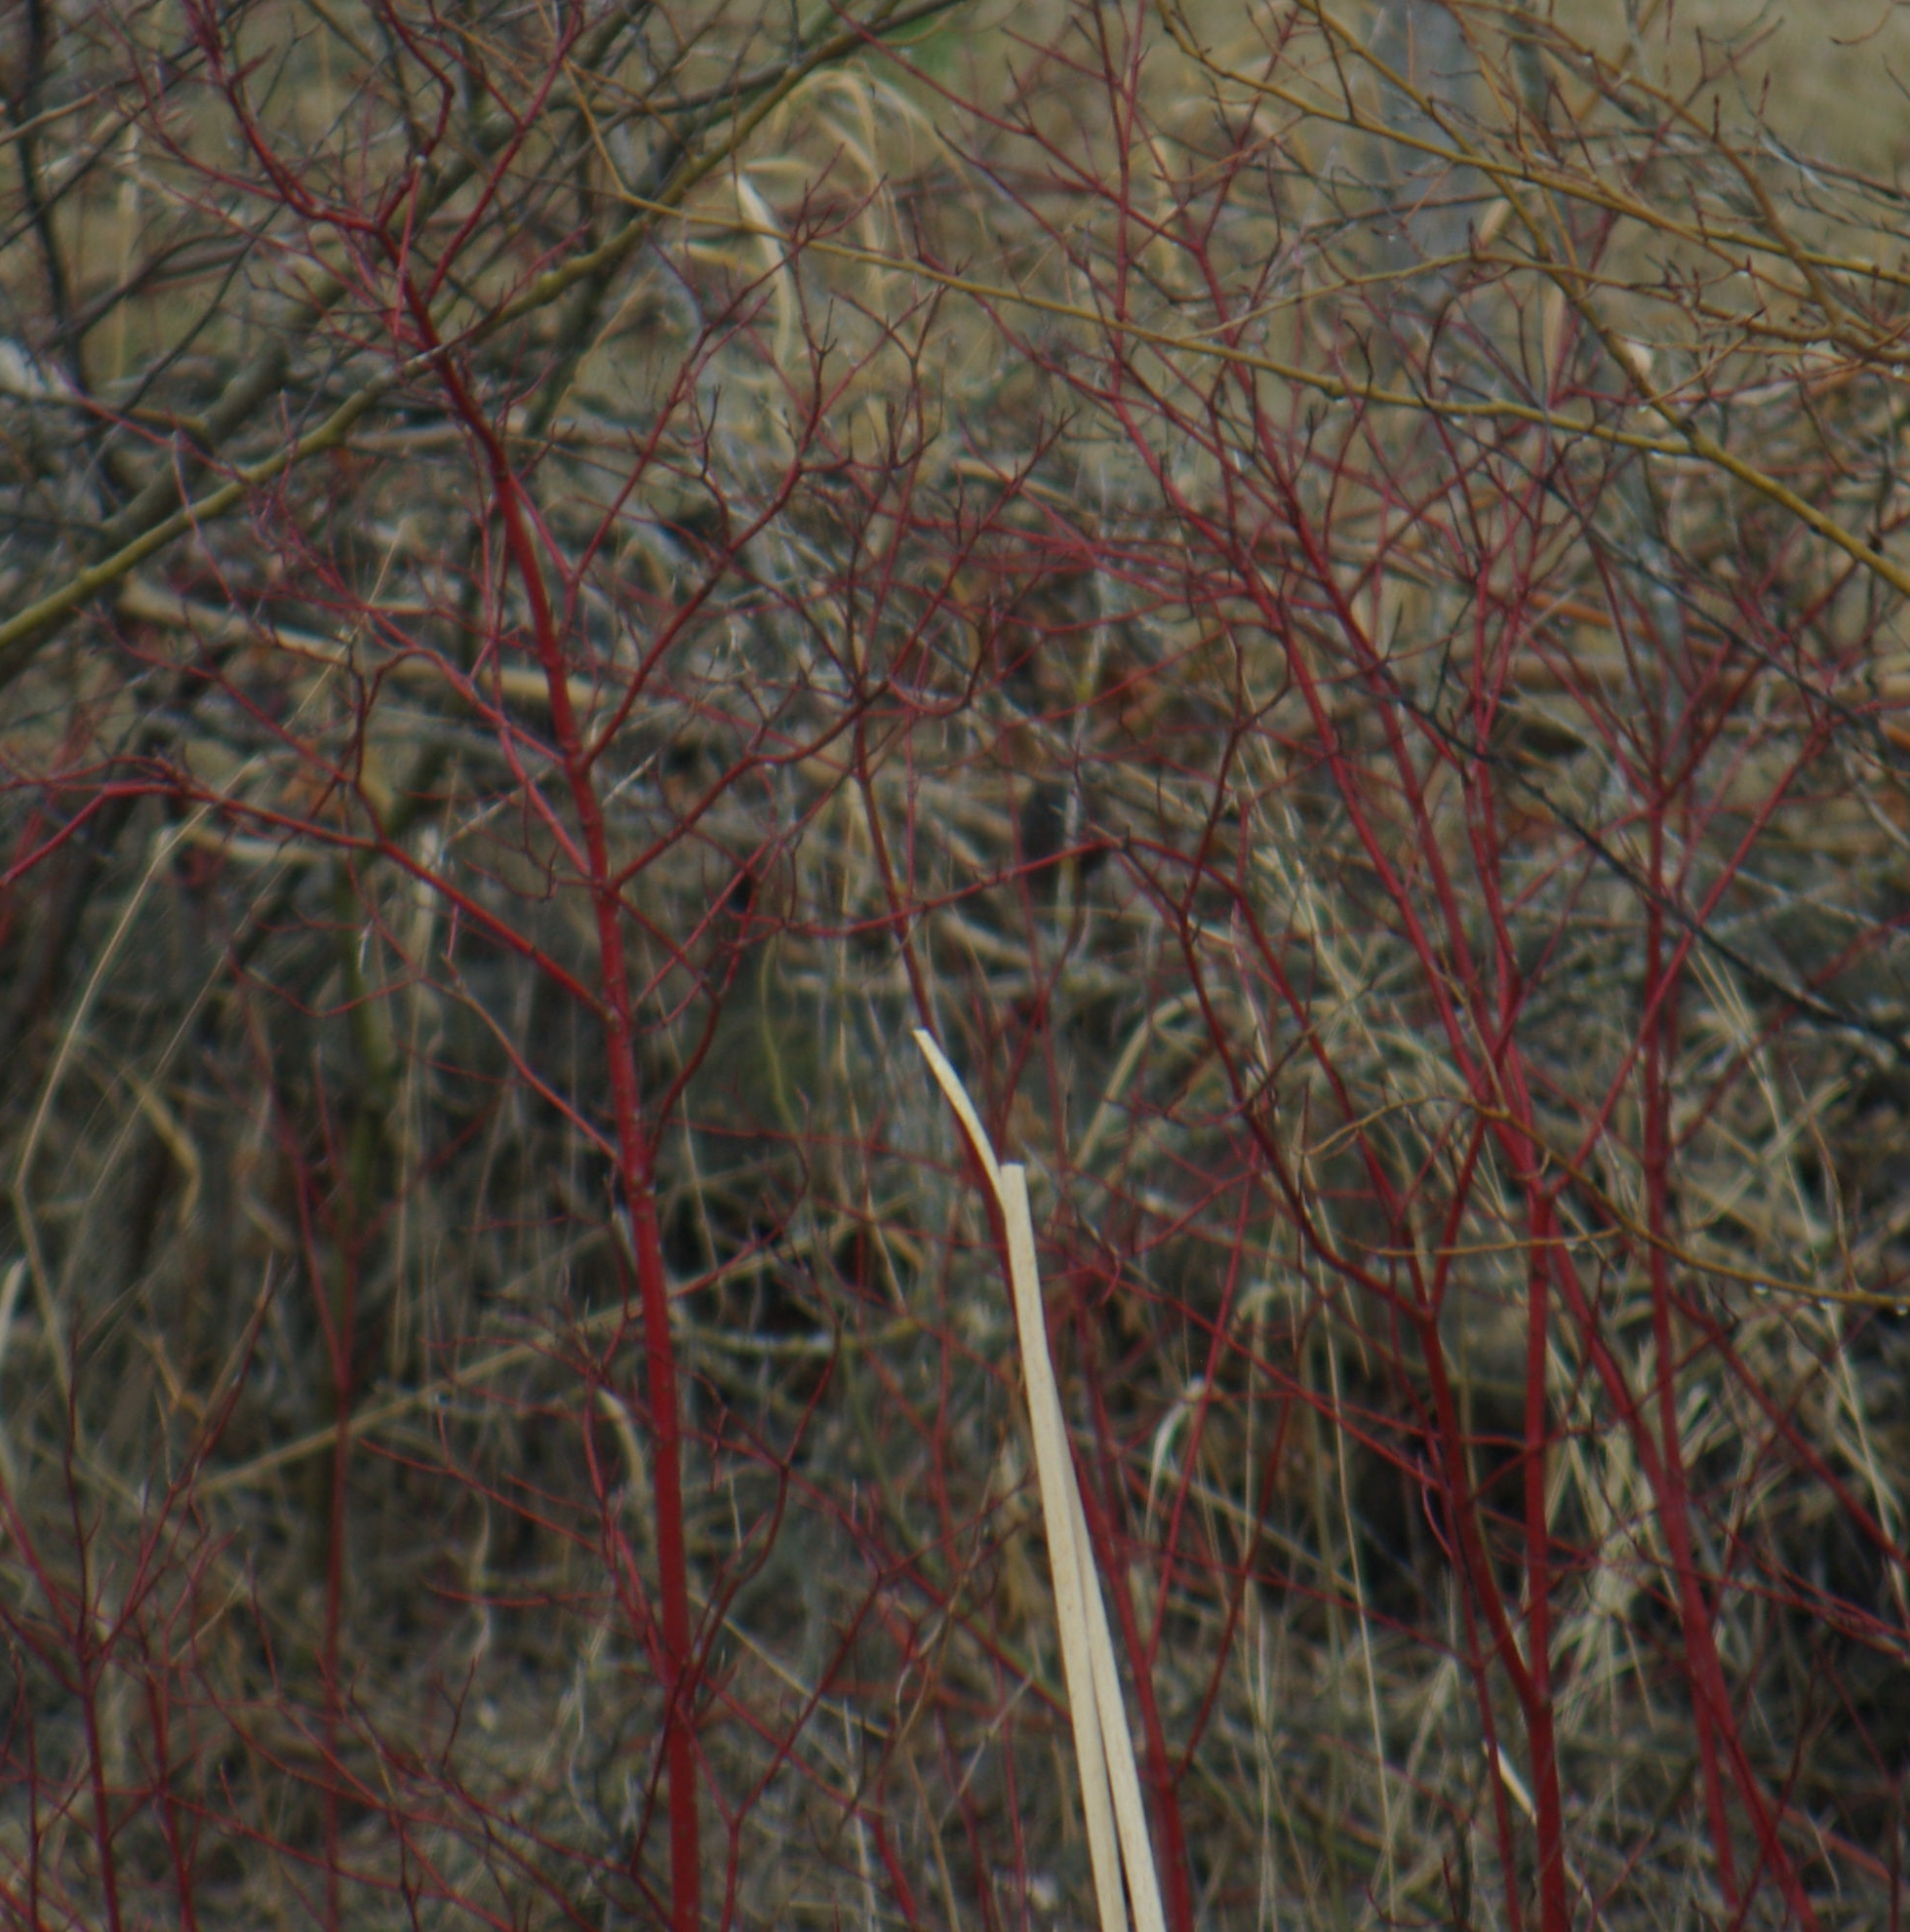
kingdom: Plantae
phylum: Tracheophyta
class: Magnoliopsida
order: Cornales
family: Cornaceae
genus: Cornus
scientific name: Cornus sericea
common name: Red-osier dogwood
